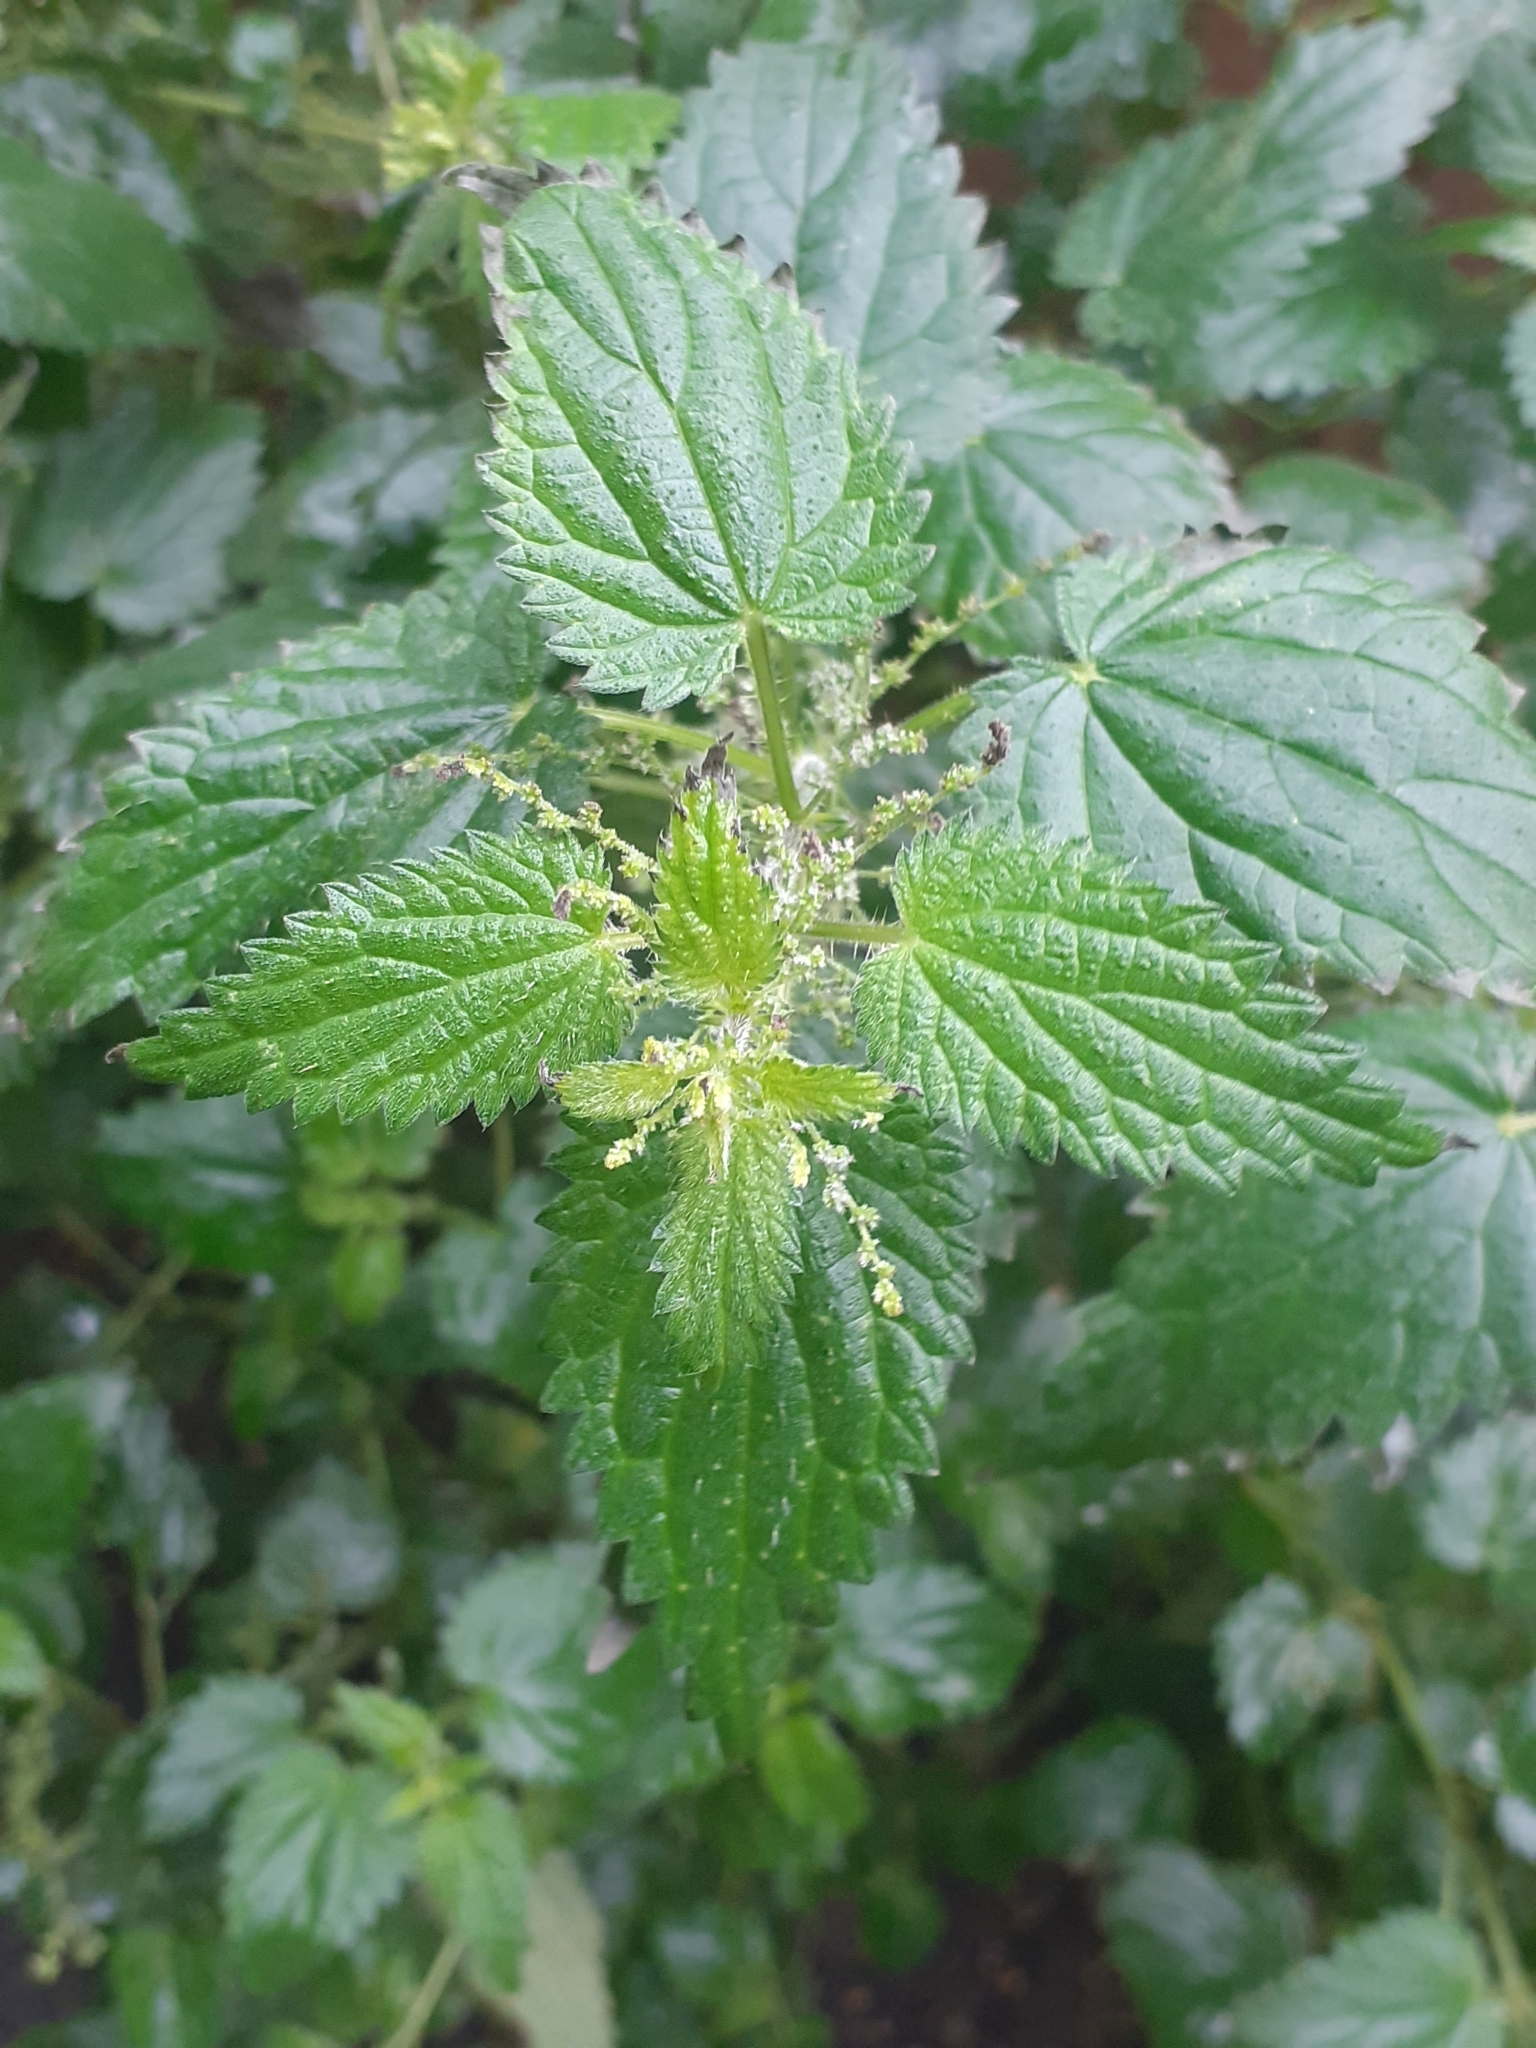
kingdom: Plantae
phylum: Tracheophyta
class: Magnoliopsida
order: Rosales
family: Urticaceae
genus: Urtica
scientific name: Urtica dioica
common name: Common nettle
